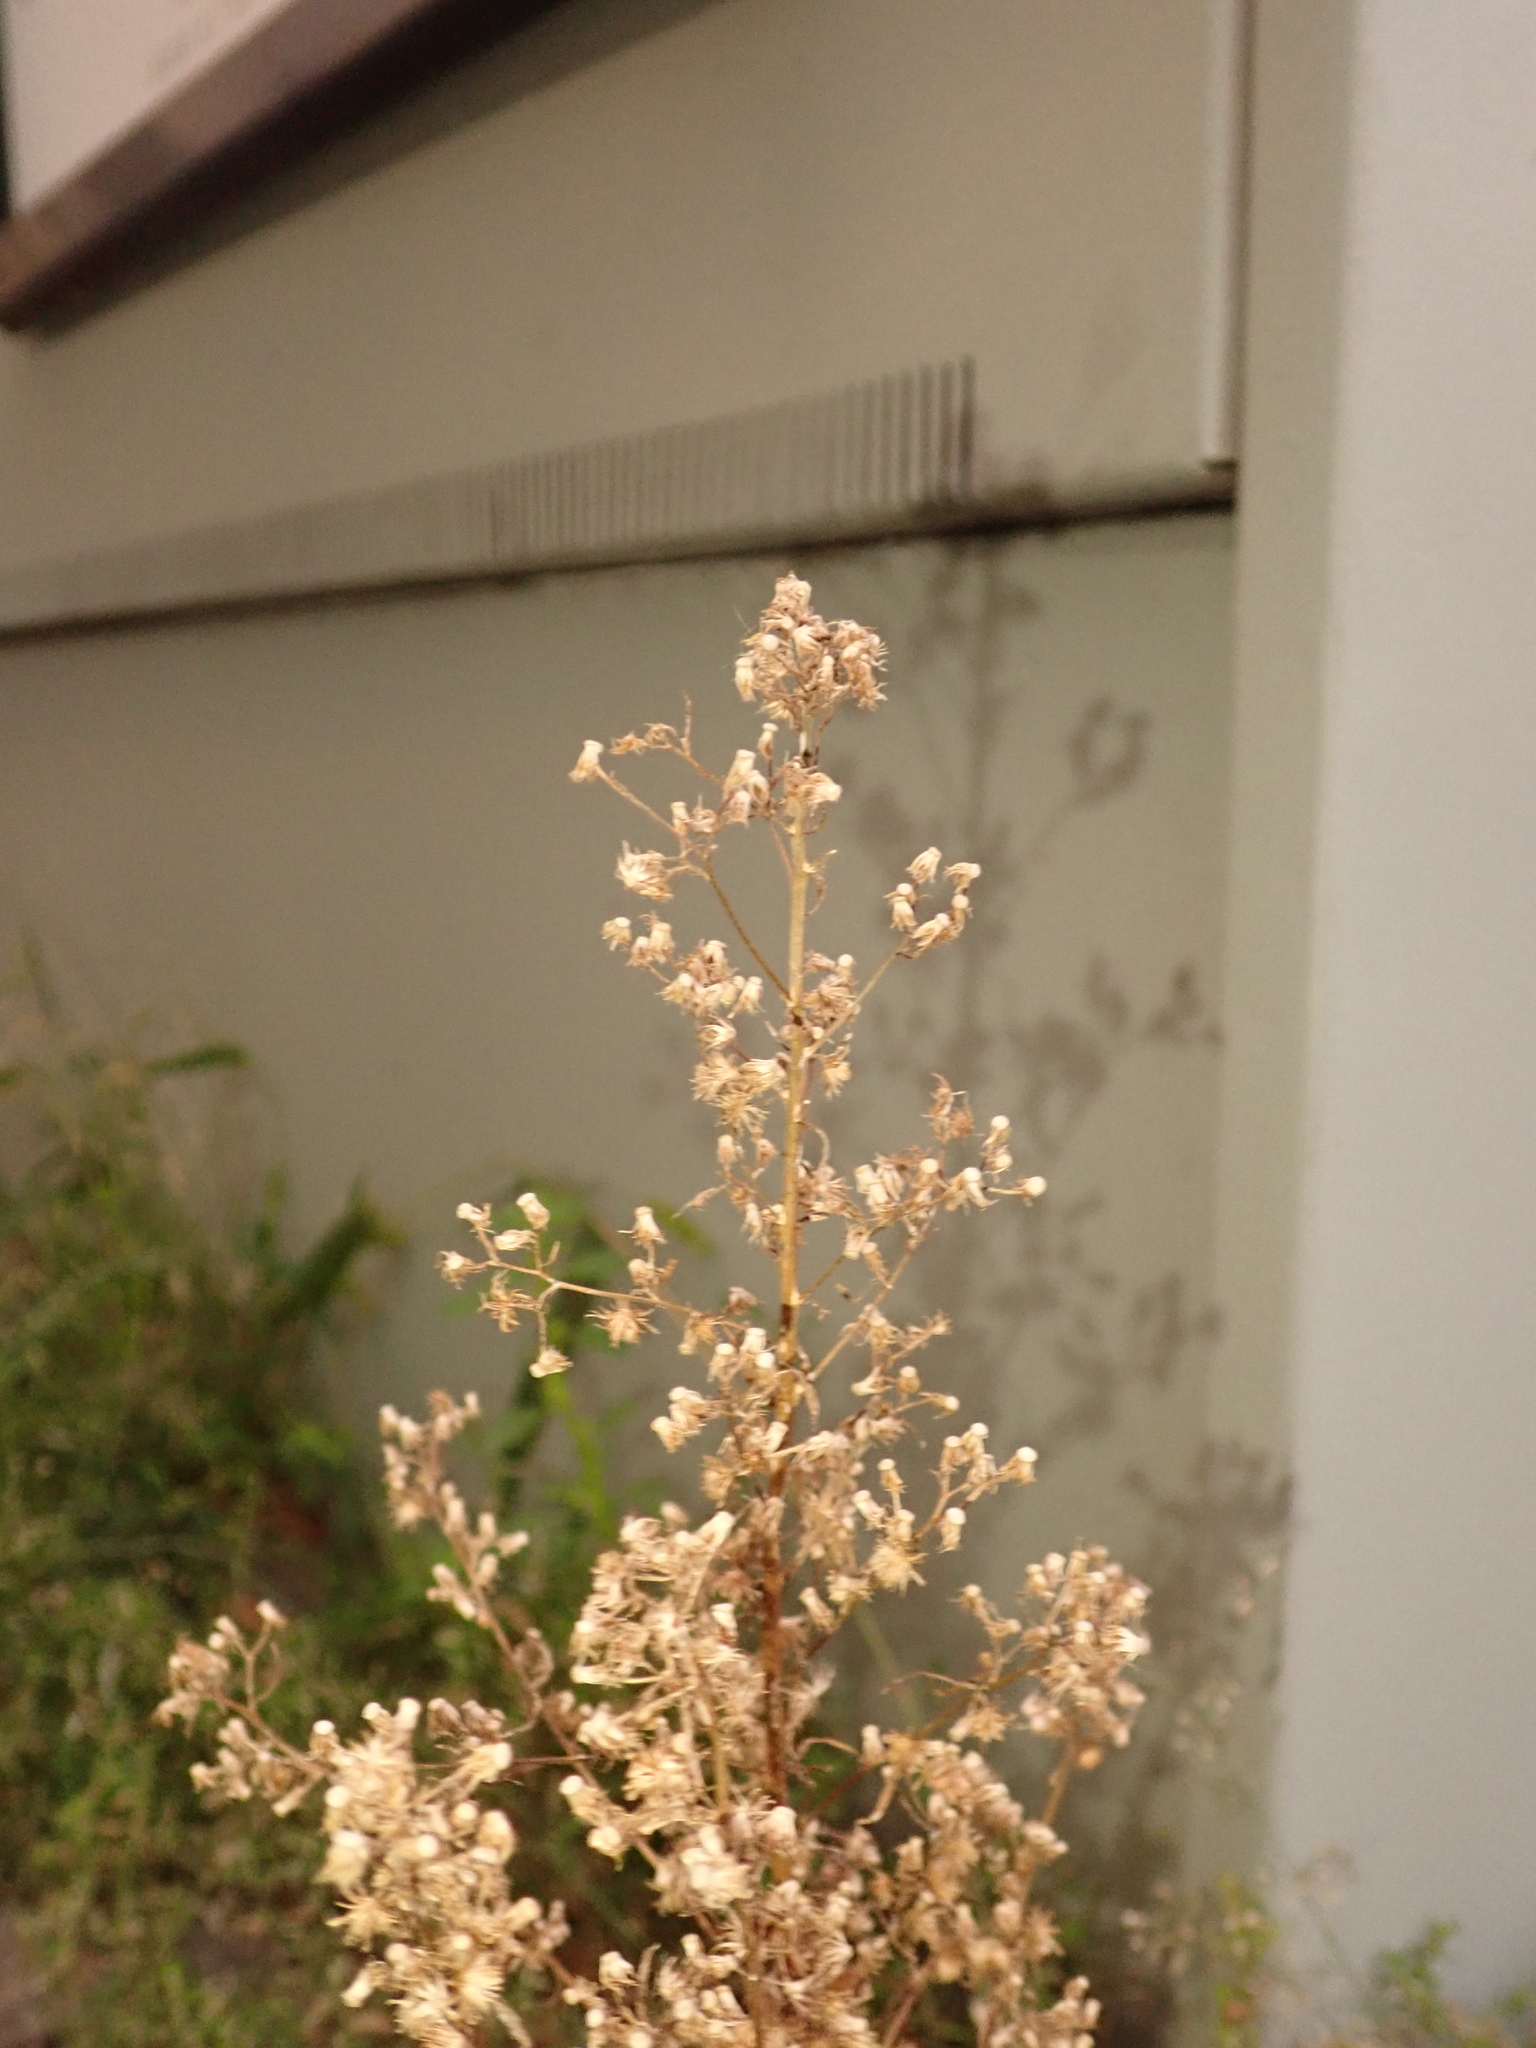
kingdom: Plantae
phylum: Tracheophyta
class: Magnoliopsida
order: Asterales
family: Asteraceae
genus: Erigeron
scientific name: Erigeron canadensis
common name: Canadian fleabane
